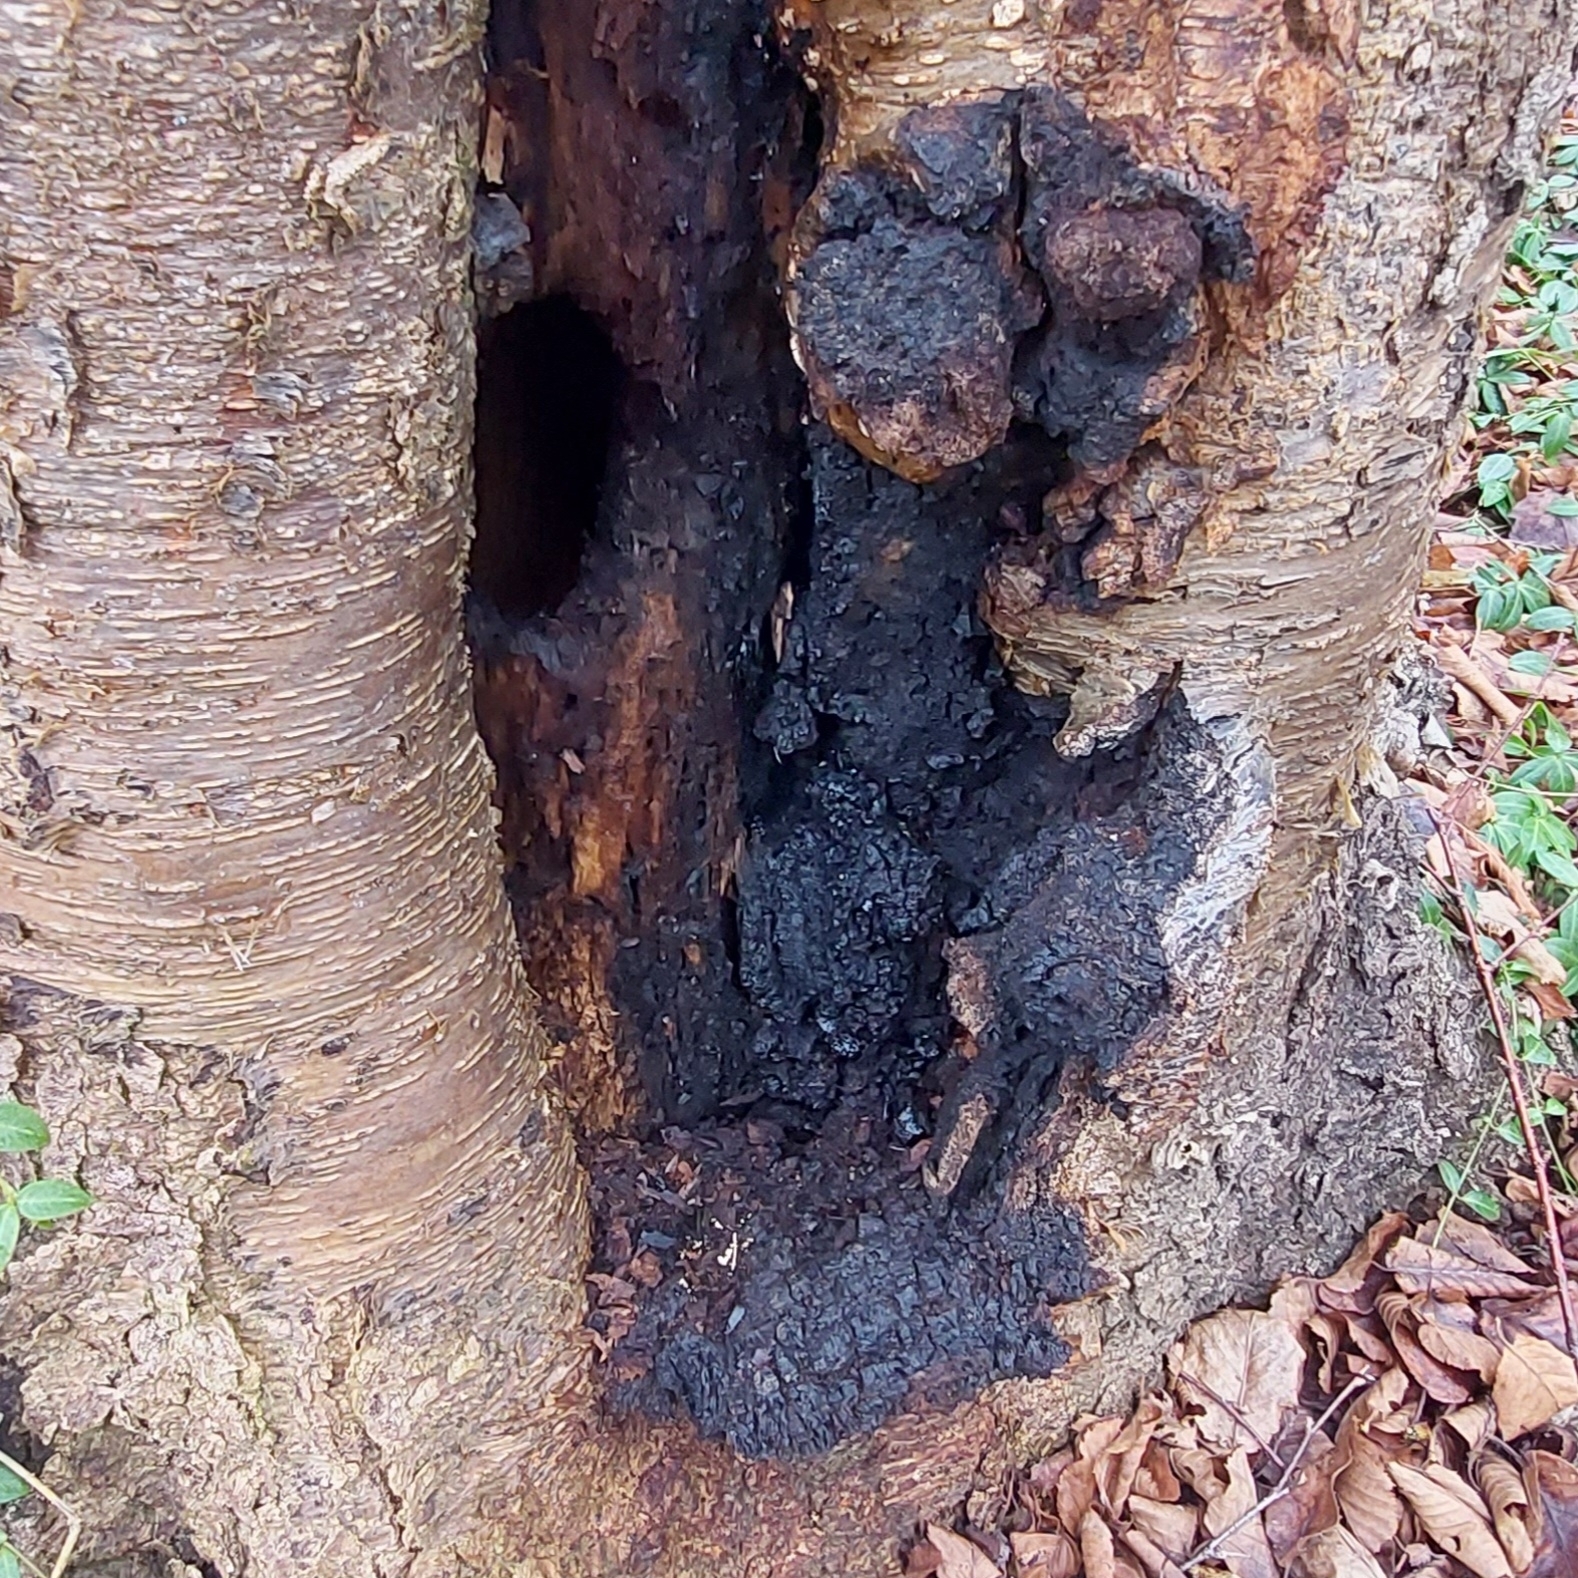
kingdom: Fungi
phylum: Basidiomycota
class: Agaricomycetes
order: Hymenochaetales
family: Hymenochaetaceae
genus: Inonotus
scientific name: Inonotus obliquus
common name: Chaga
